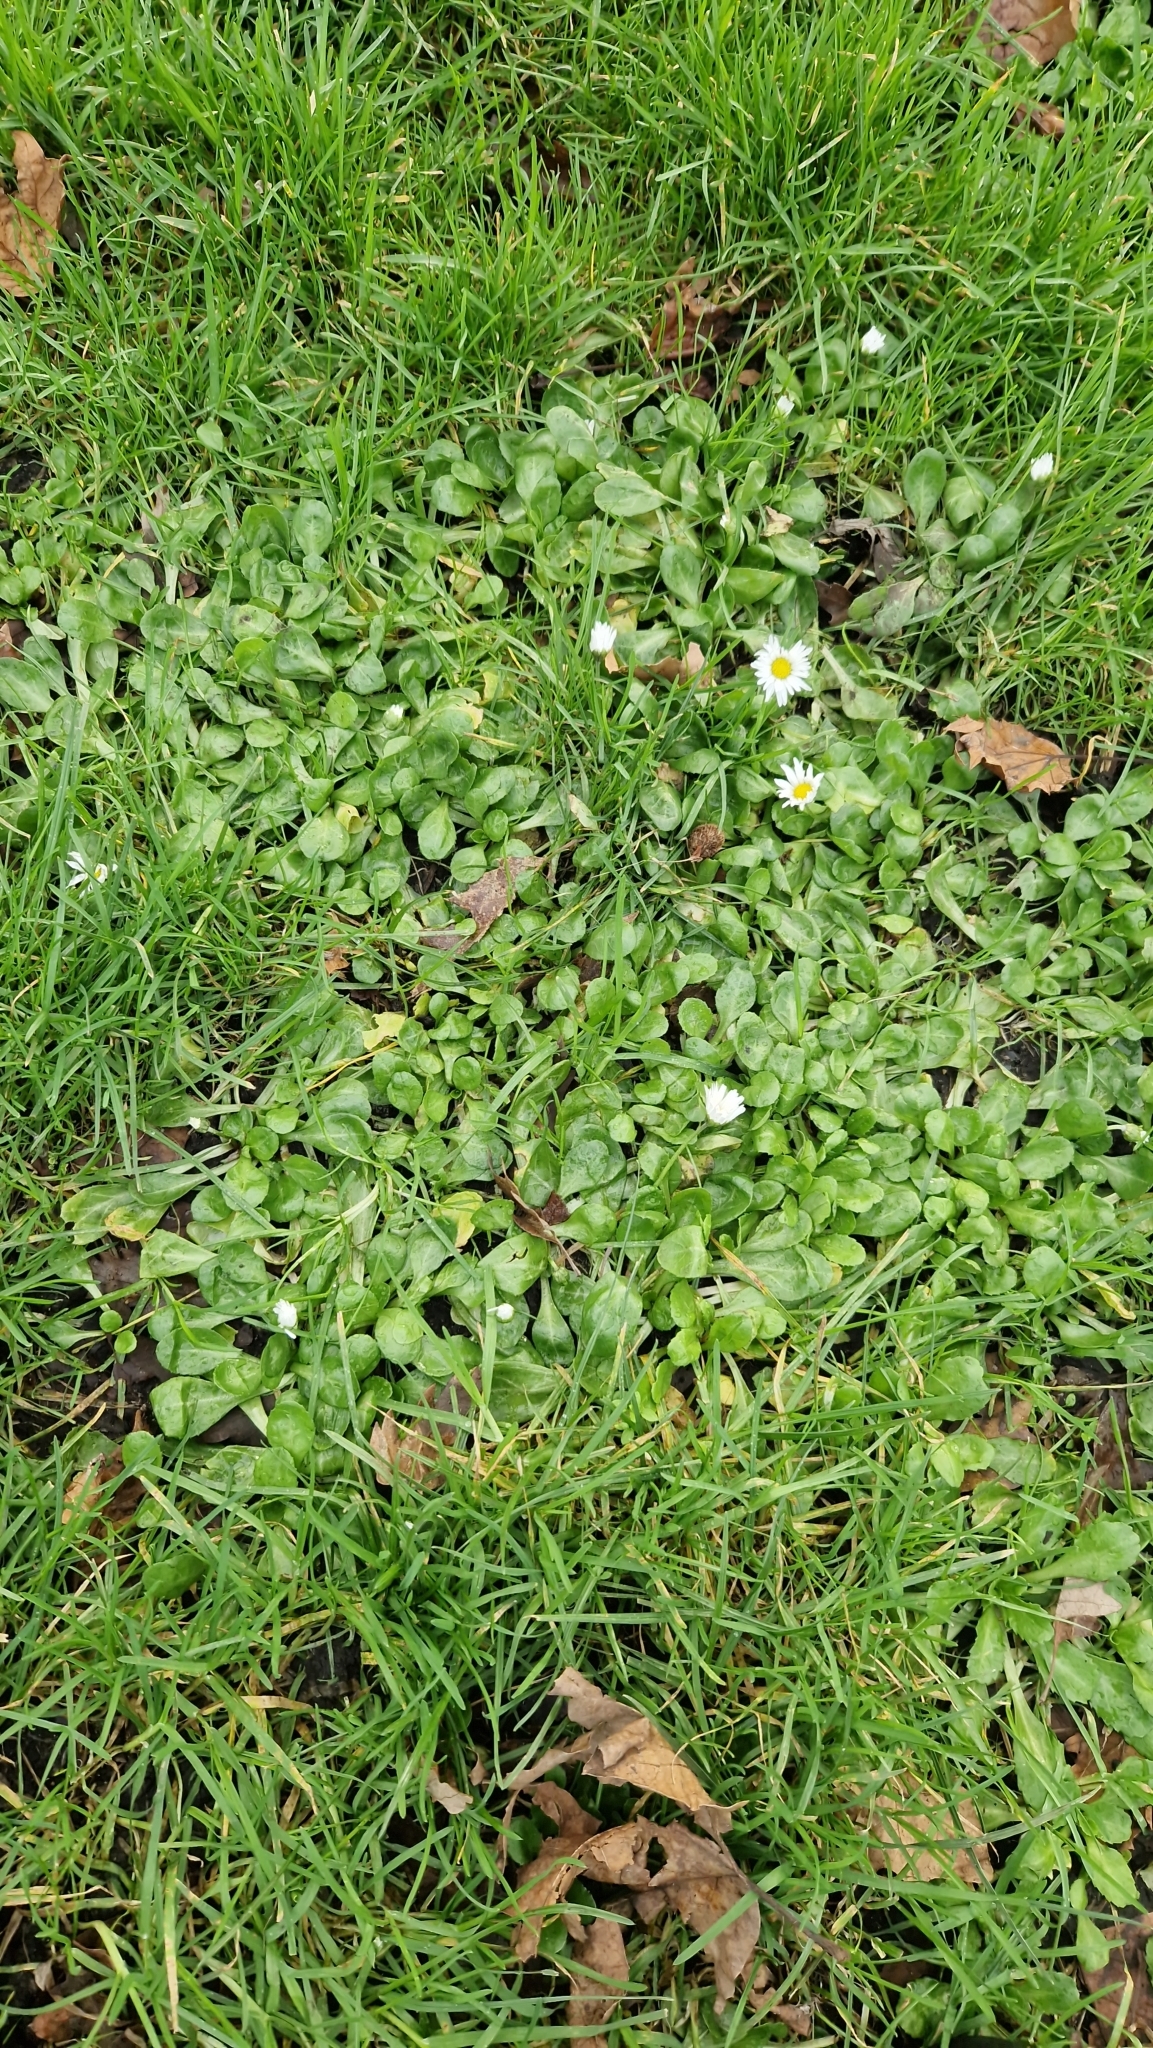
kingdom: Plantae
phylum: Tracheophyta
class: Magnoliopsida
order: Asterales
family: Asteraceae
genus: Bellis
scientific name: Bellis perennis
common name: Lawndaisy
